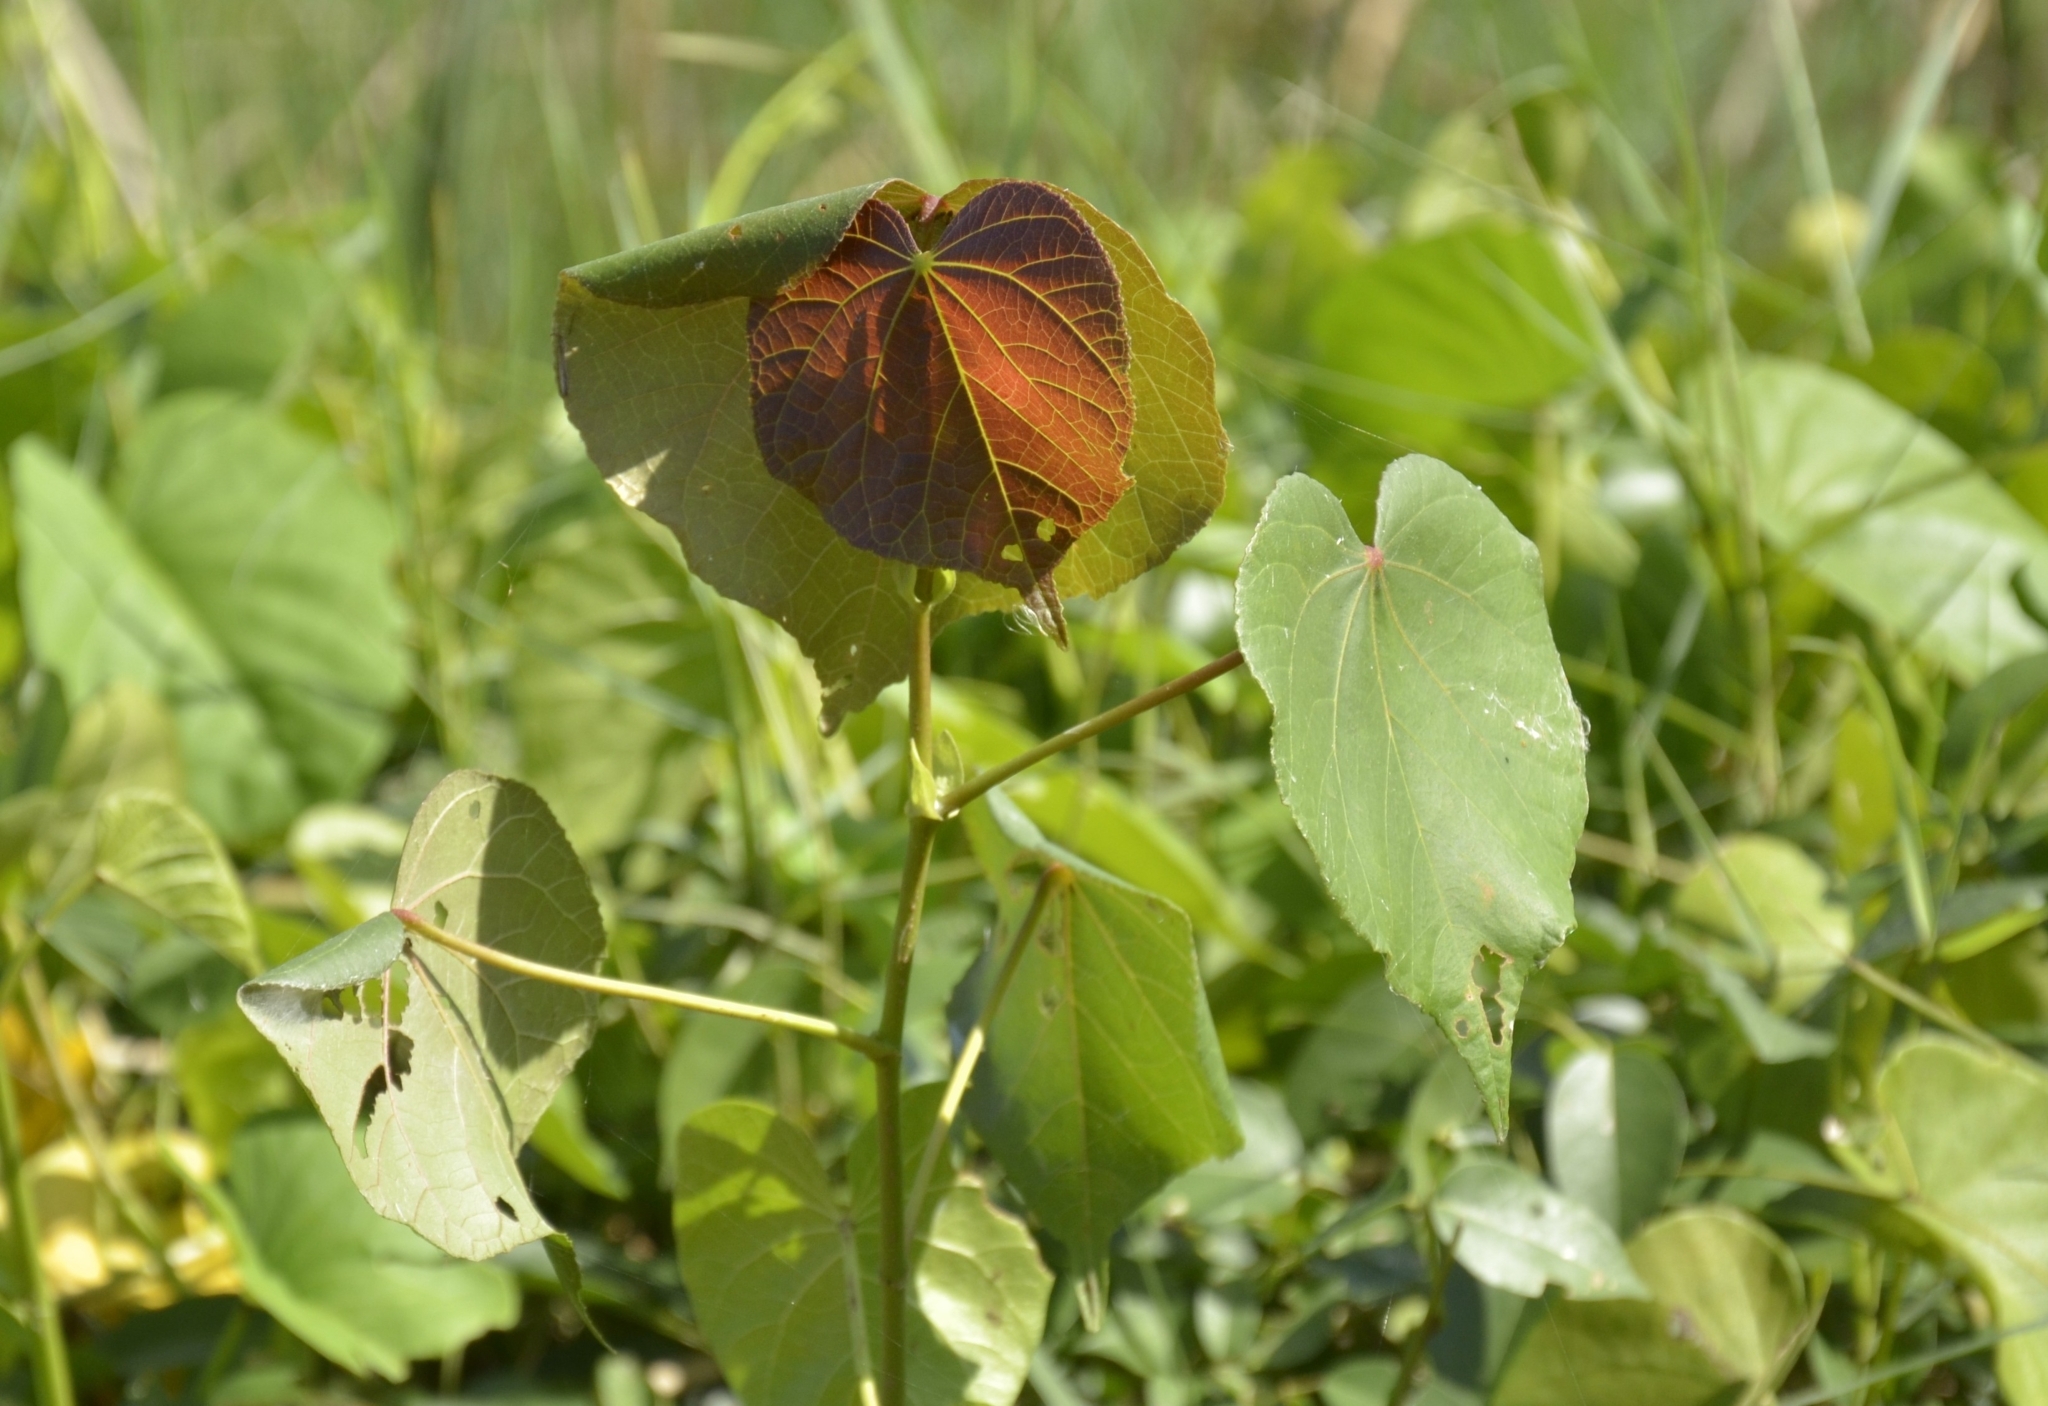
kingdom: Plantae
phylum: Tracheophyta
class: Magnoliopsida
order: Malvales
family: Malvaceae
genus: Talipariti
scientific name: Talipariti tiliaceum
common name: Sea hibiscus
